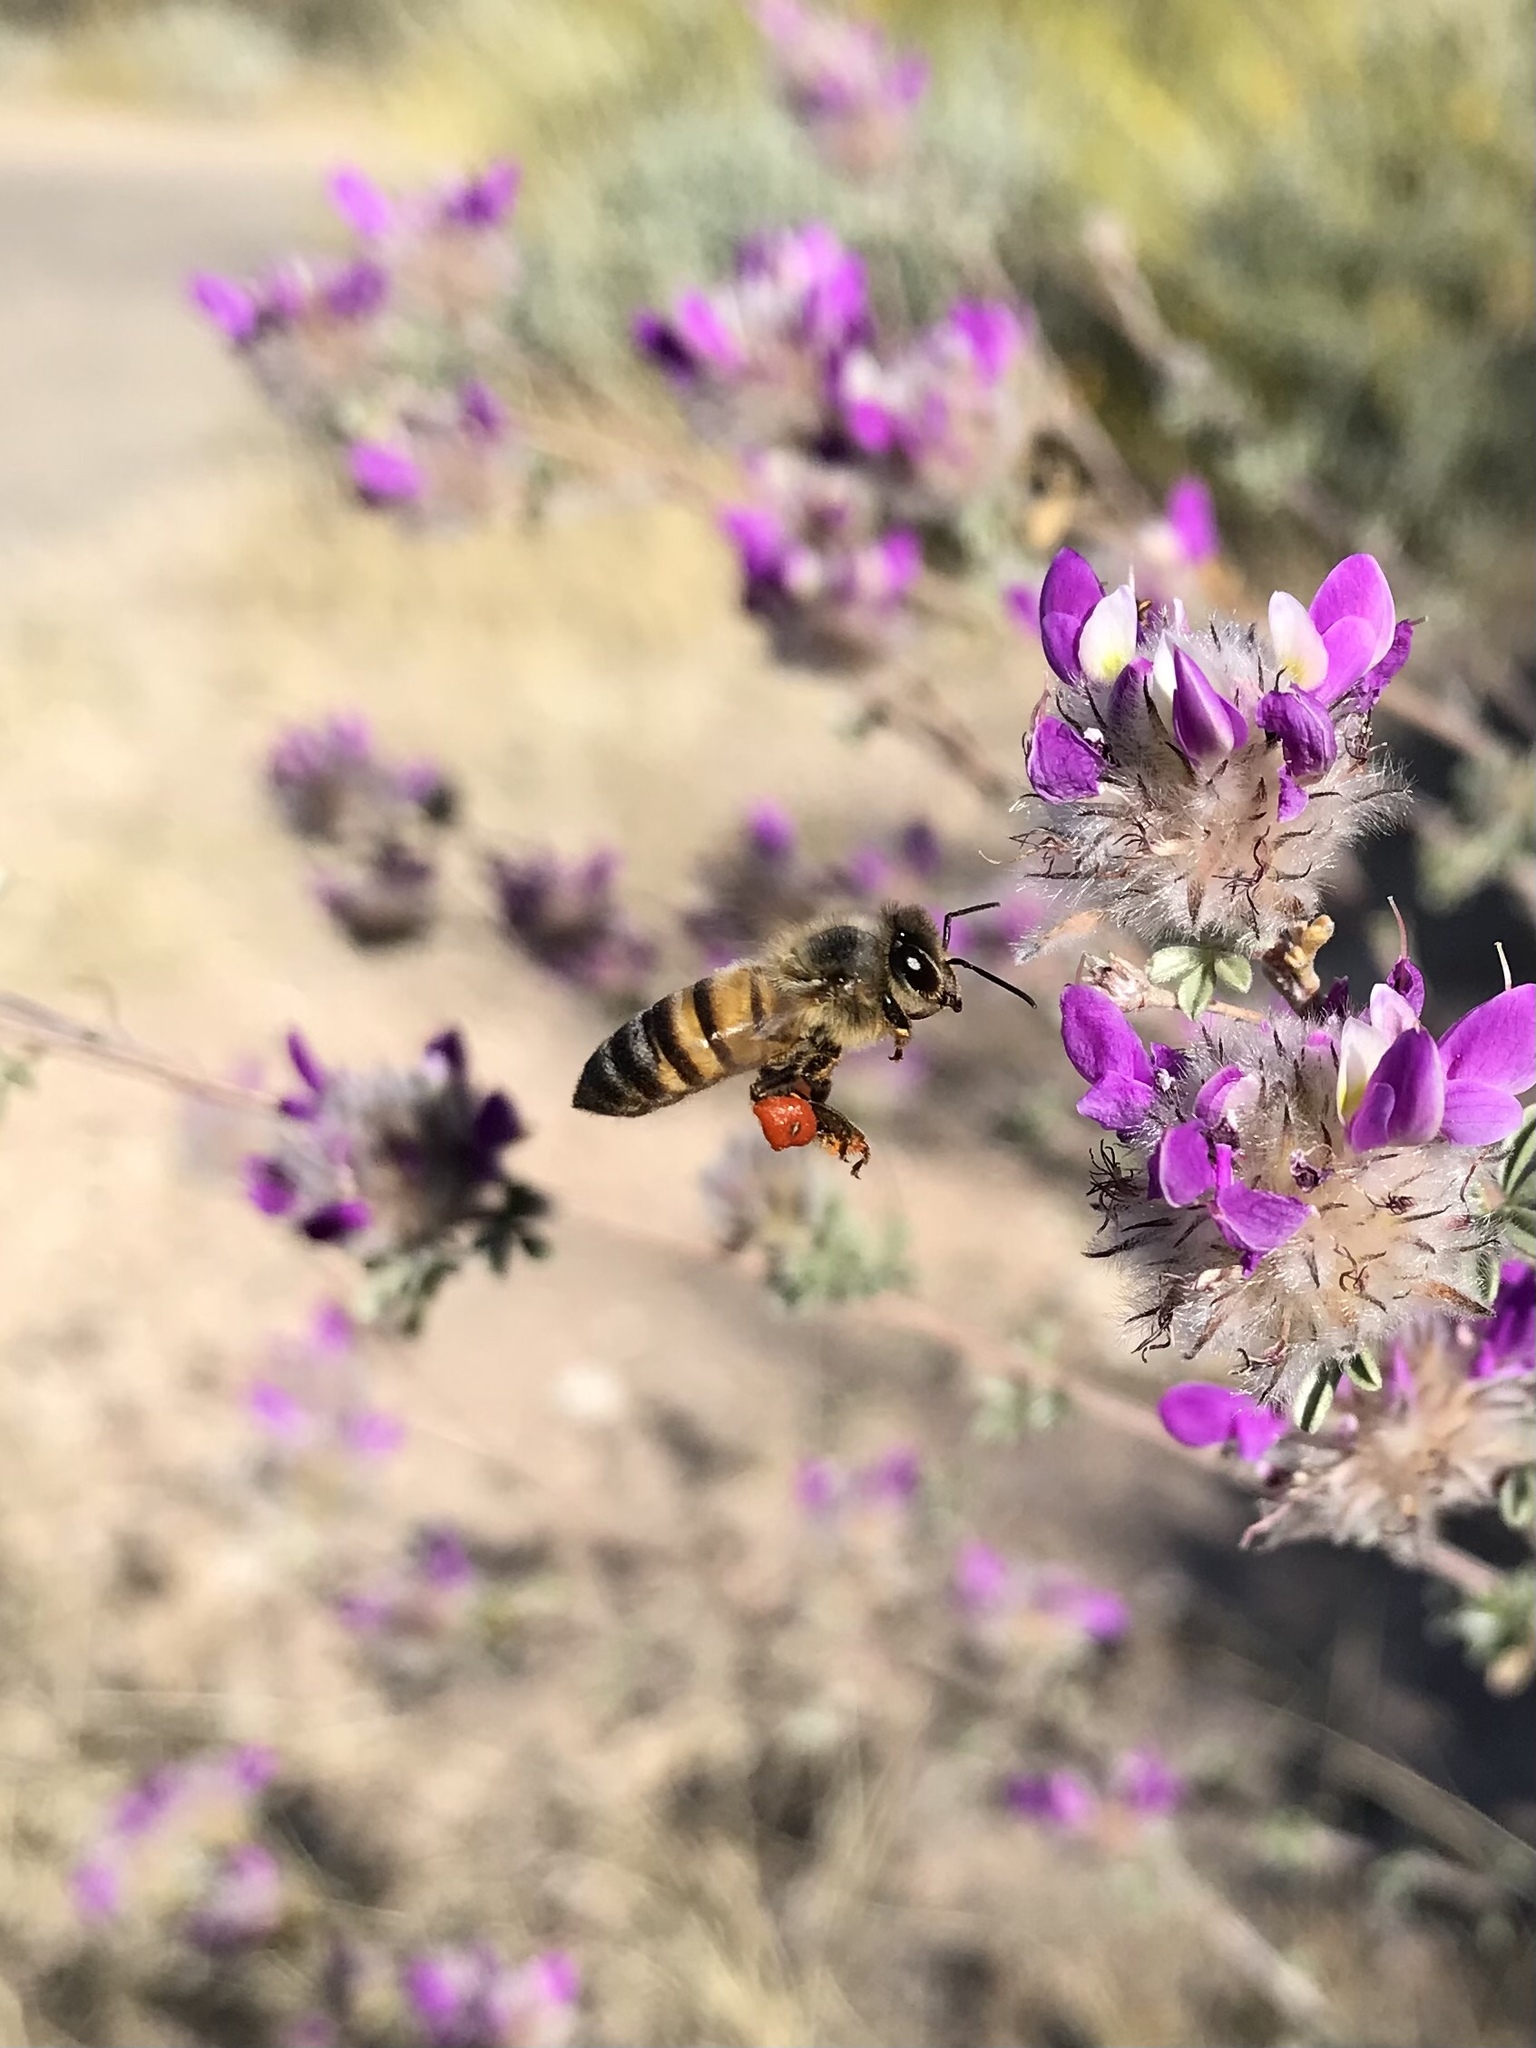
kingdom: Animalia
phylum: Arthropoda
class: Insecta
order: Hymenoptera
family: Apidae
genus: Apis
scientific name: Apis mellifera
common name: Honey bee
